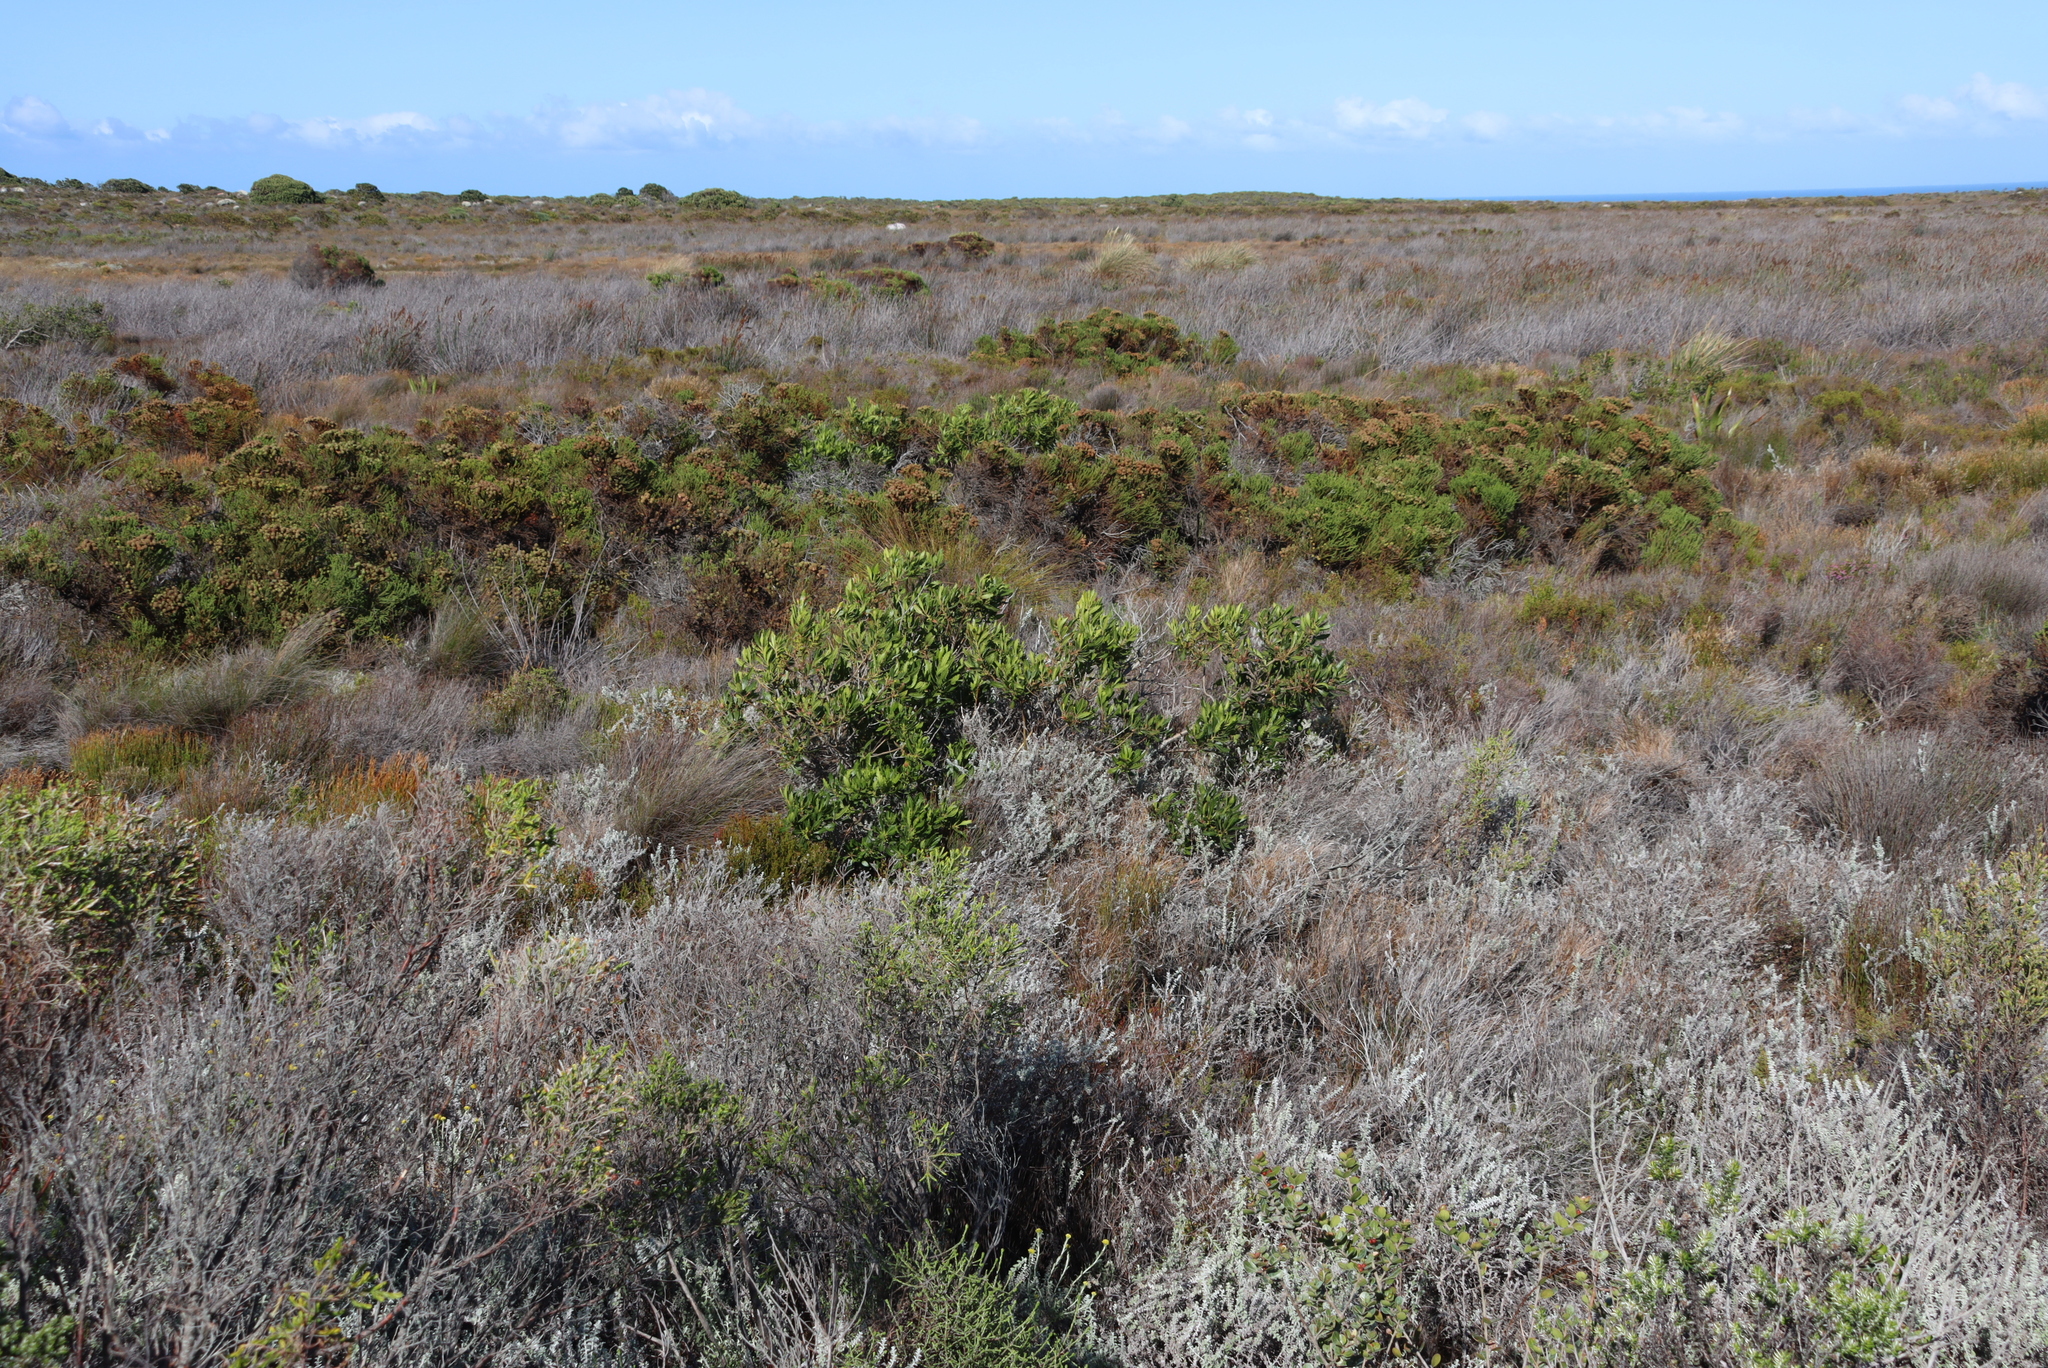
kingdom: Plantae
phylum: Tracheophyta
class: Magnoliopsida
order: Fagales
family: Myricaceae
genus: Morella
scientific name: Morella serrata
